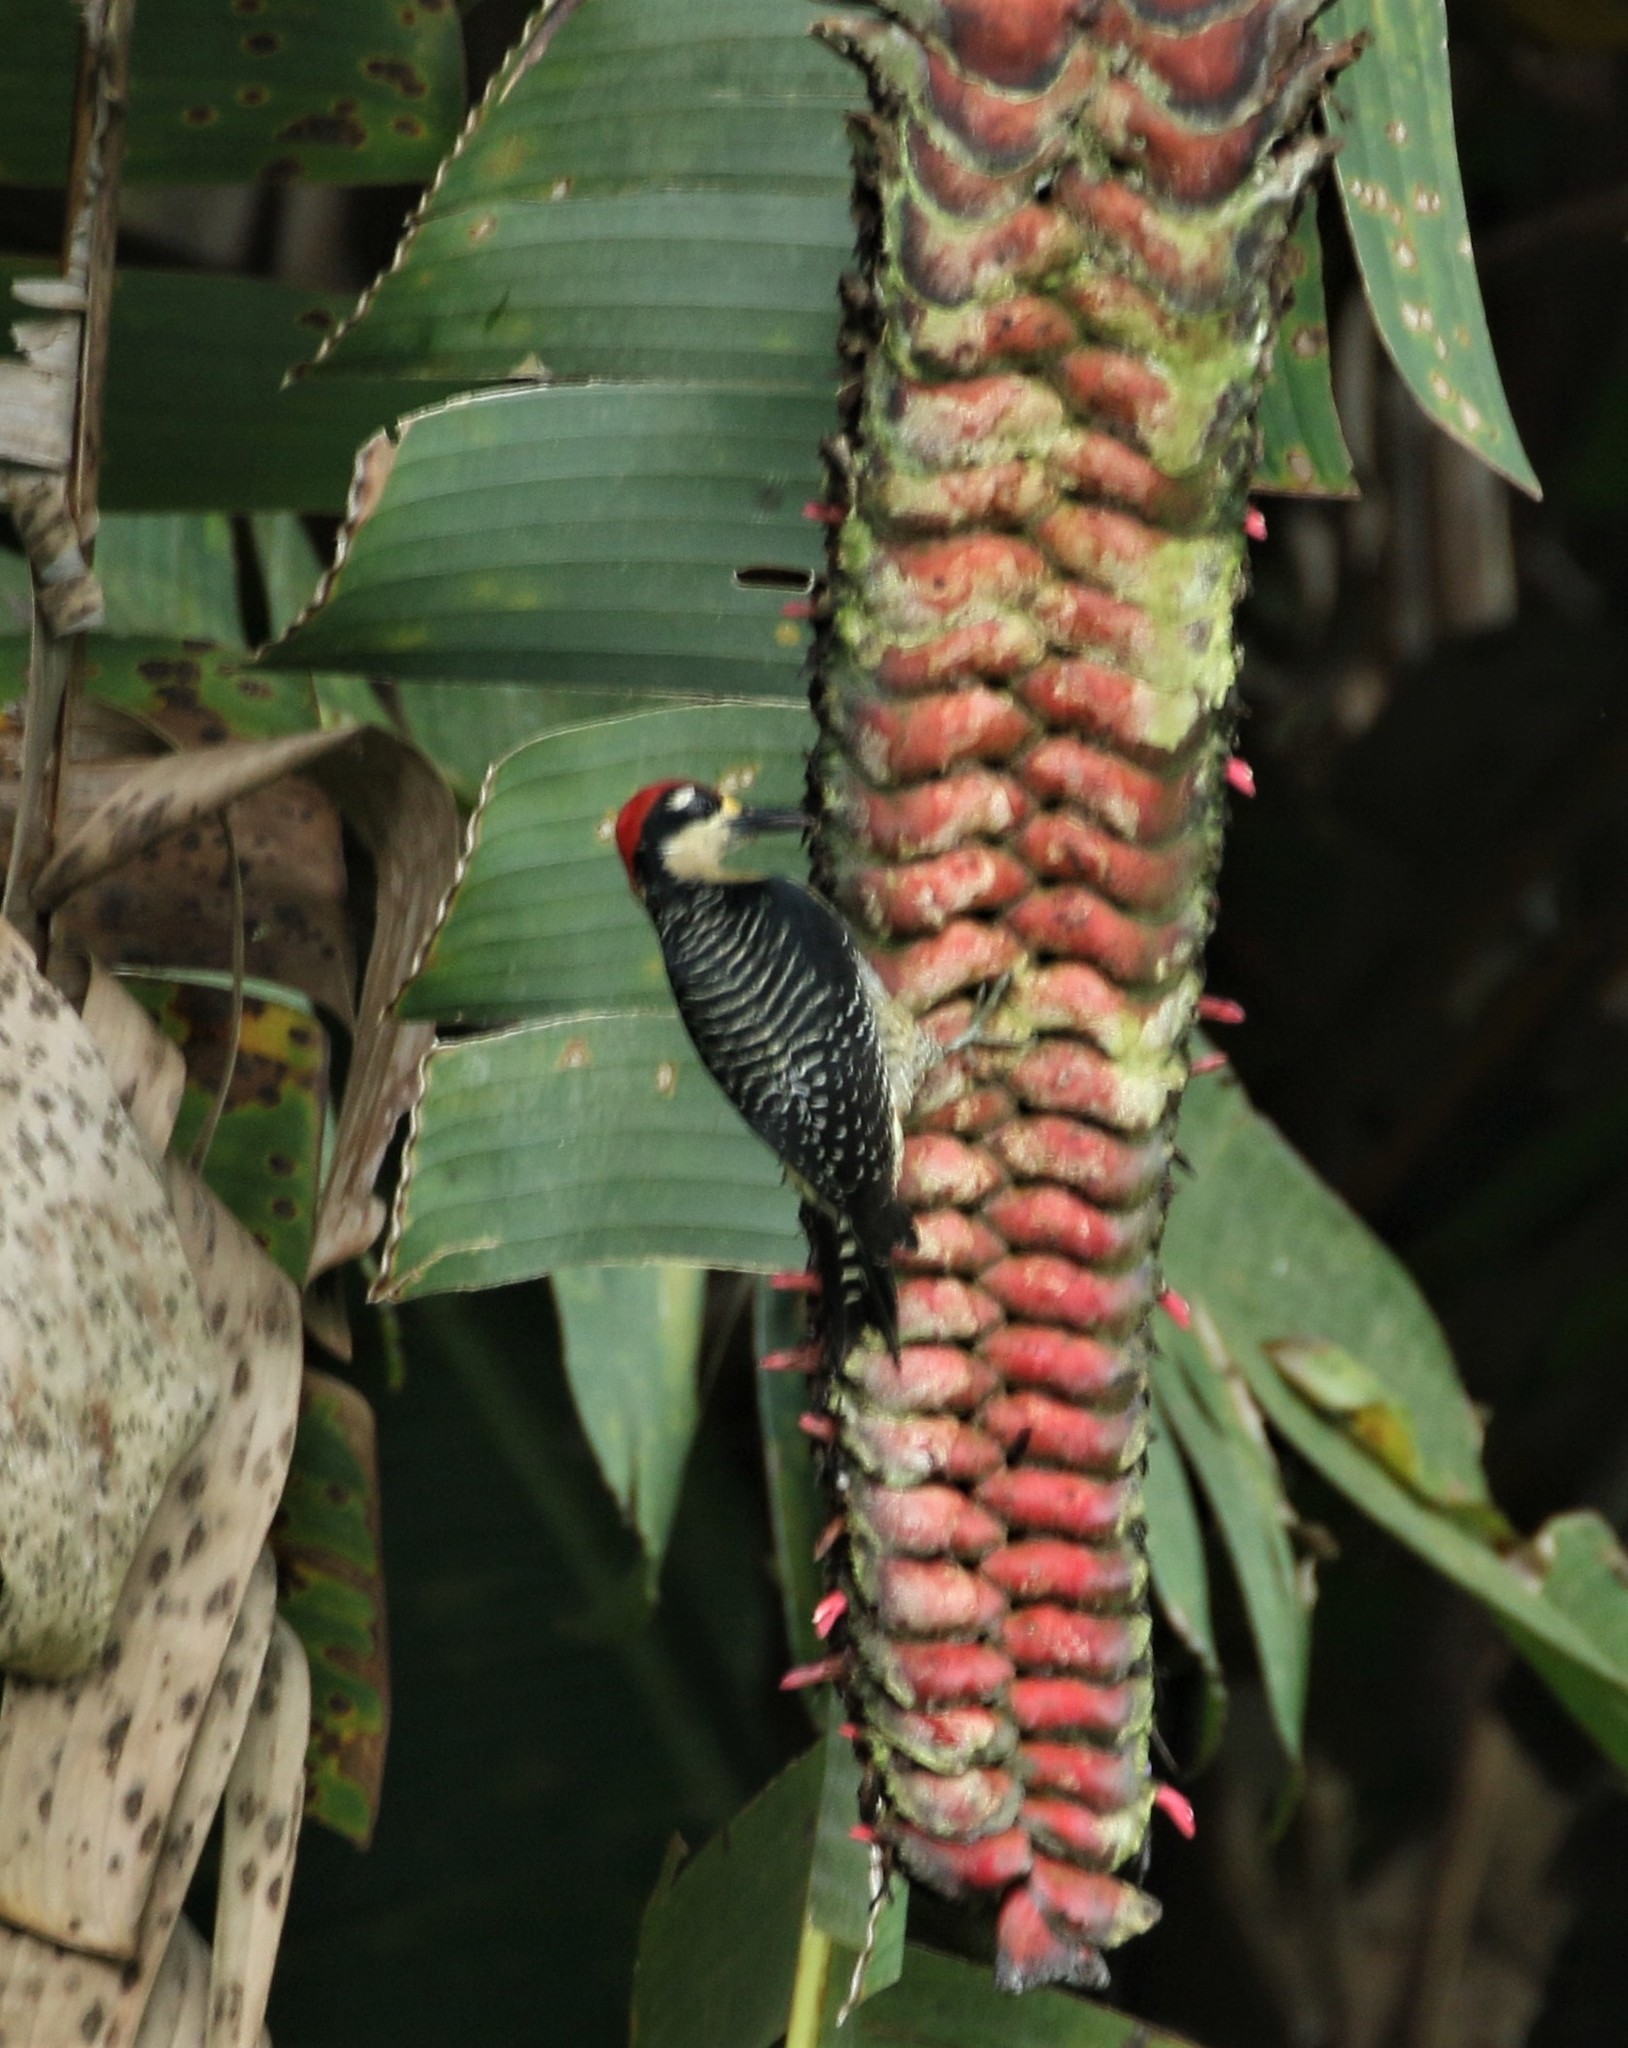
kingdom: Animalia
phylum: Chordata
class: Aves
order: Piciformes
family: Picidae
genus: Melanerpes
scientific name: Melanerpes pucherani
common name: Black-cheeked woodpecker
